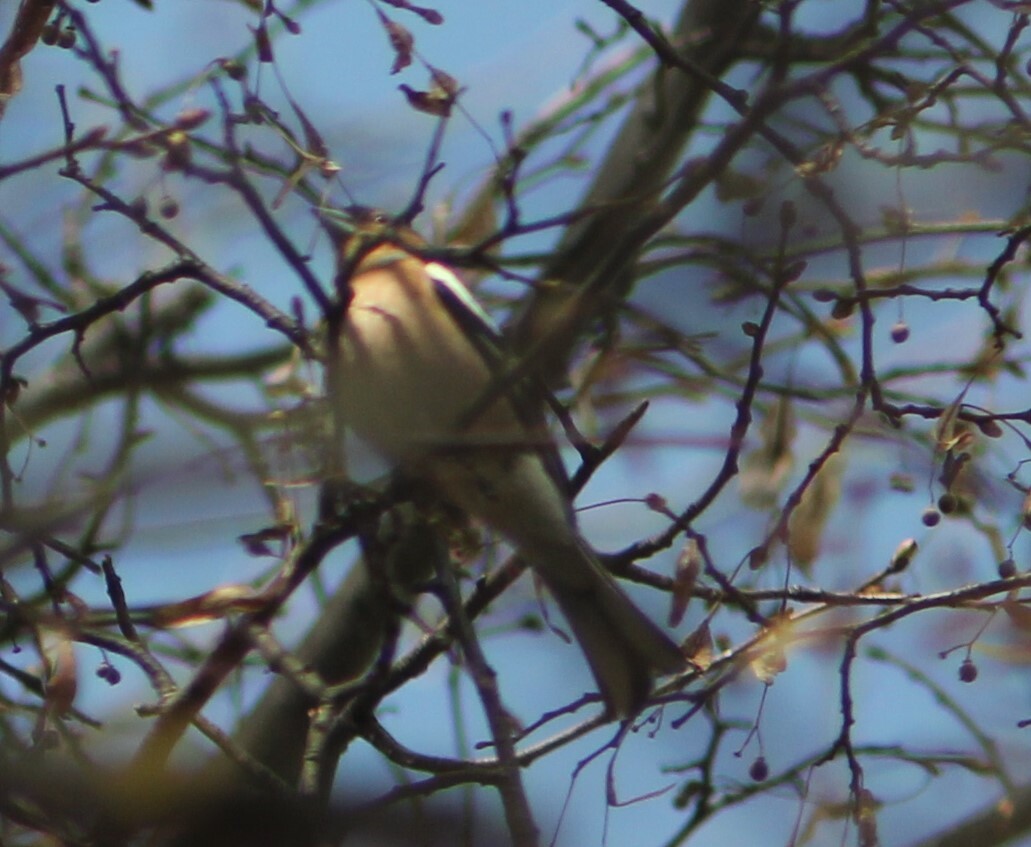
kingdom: Animalia
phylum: Chordata
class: Aves
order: Passeriformes
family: Fringillidae
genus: Coccothraustes
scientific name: Coccothraustes coccothraustes
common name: Hawfinch
